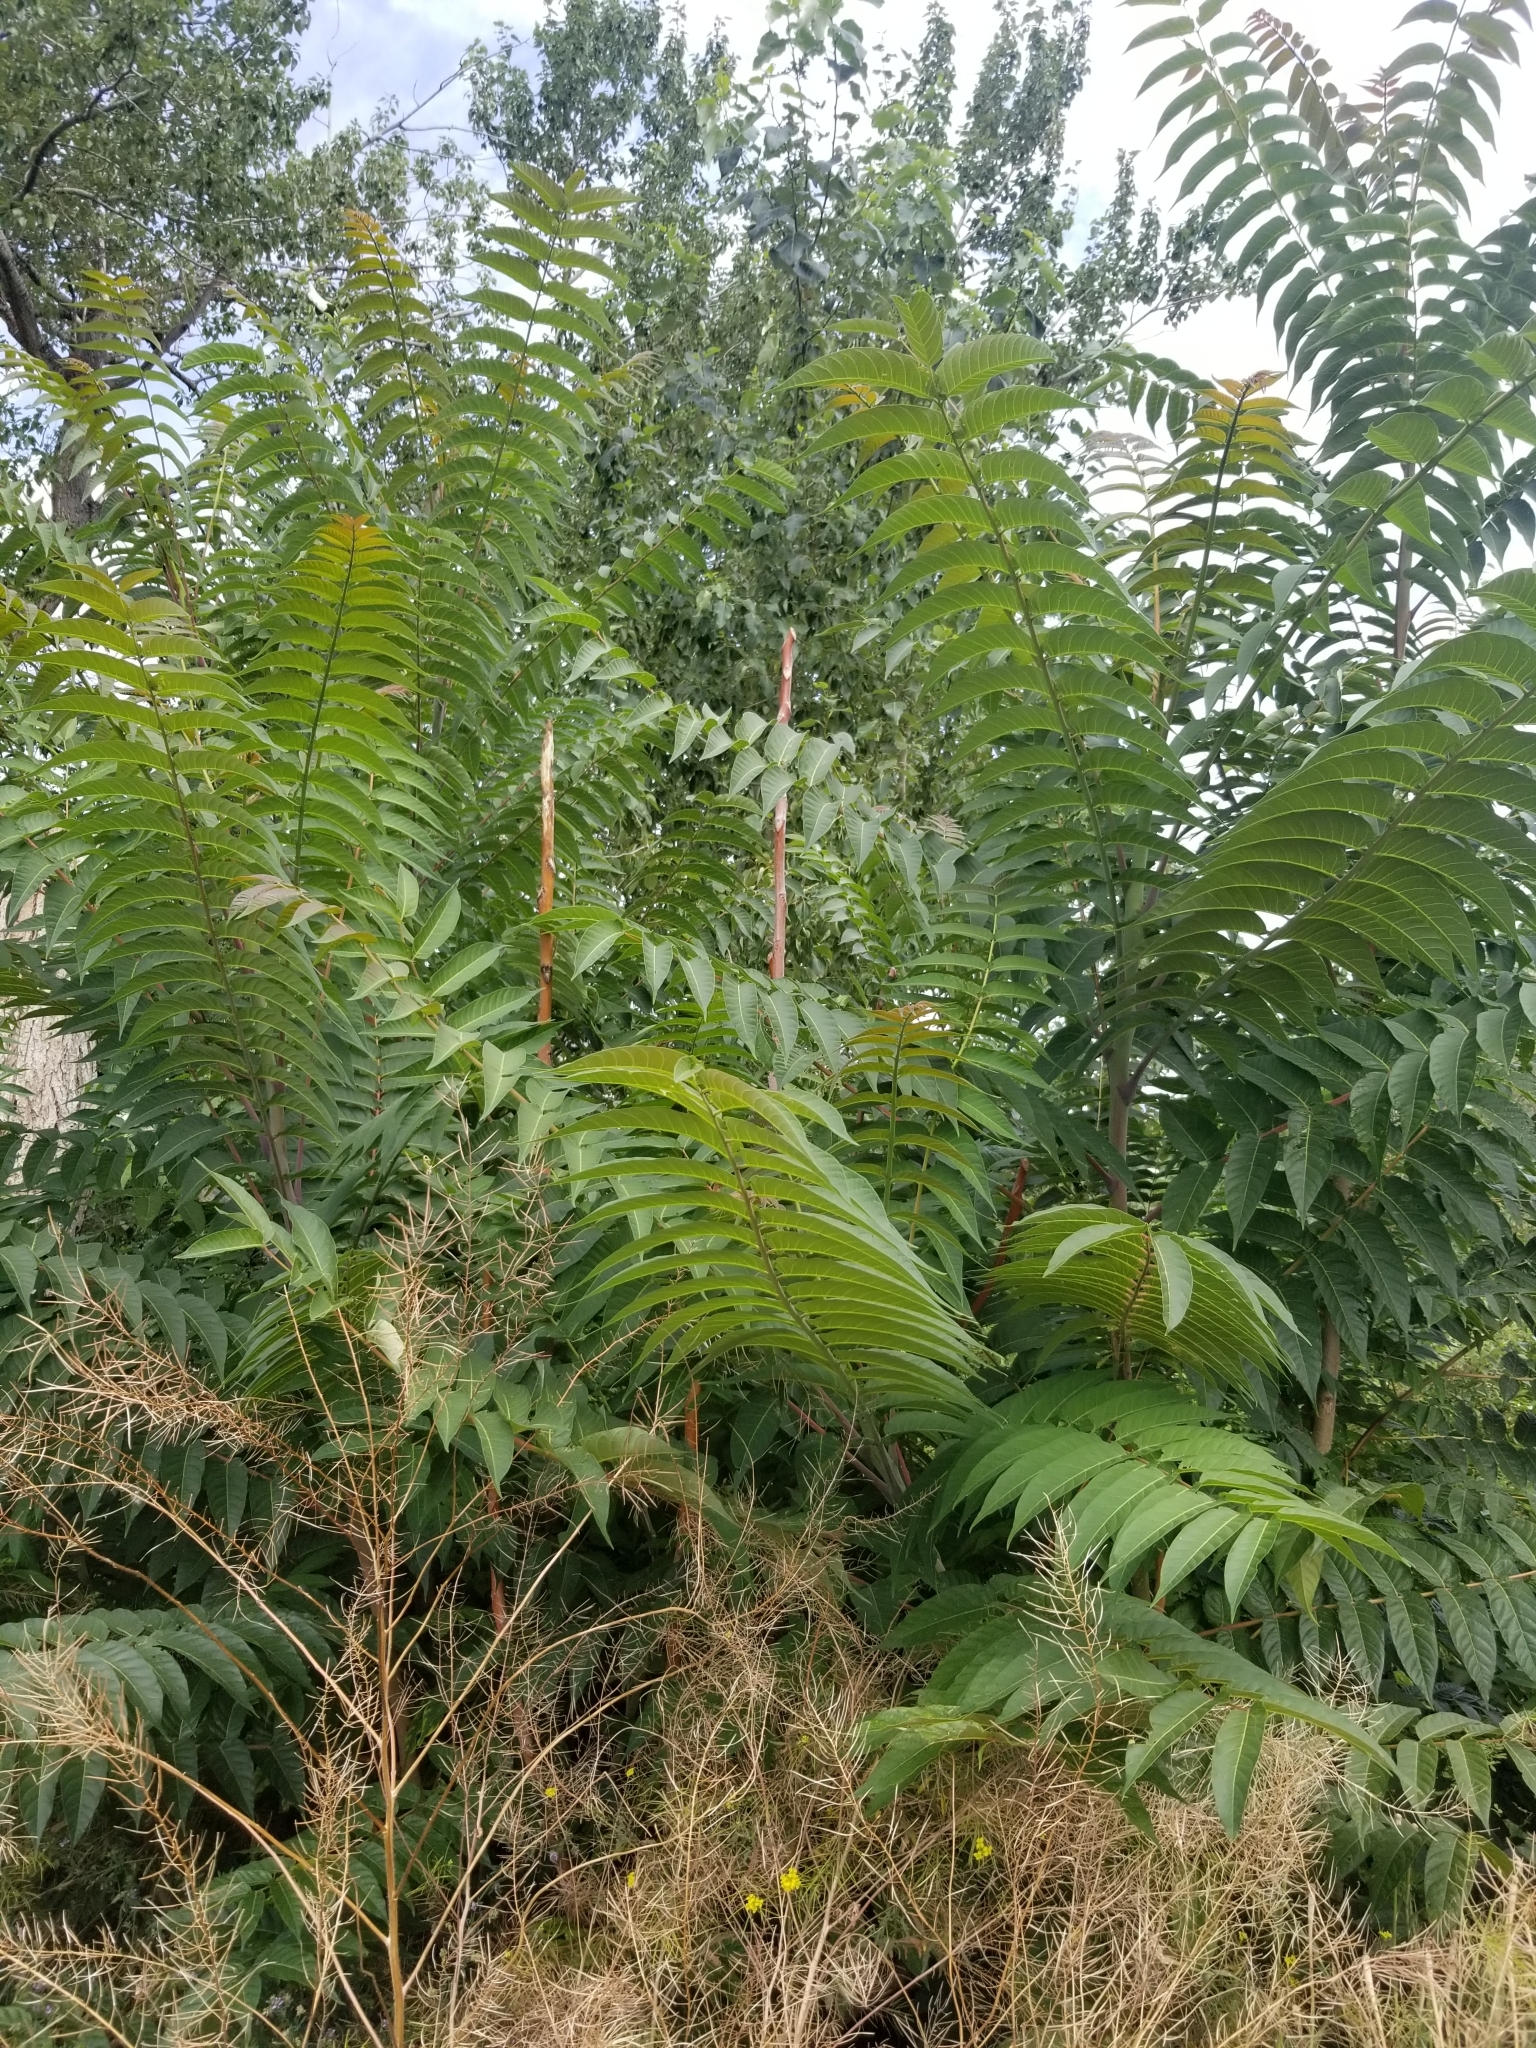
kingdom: Plantae
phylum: Tracheophyta
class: Magnoliopsida
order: Sapindales
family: Simaroubaceae
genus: Ailanthus
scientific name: Ailanthus altissima
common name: Tree-of-heaven
